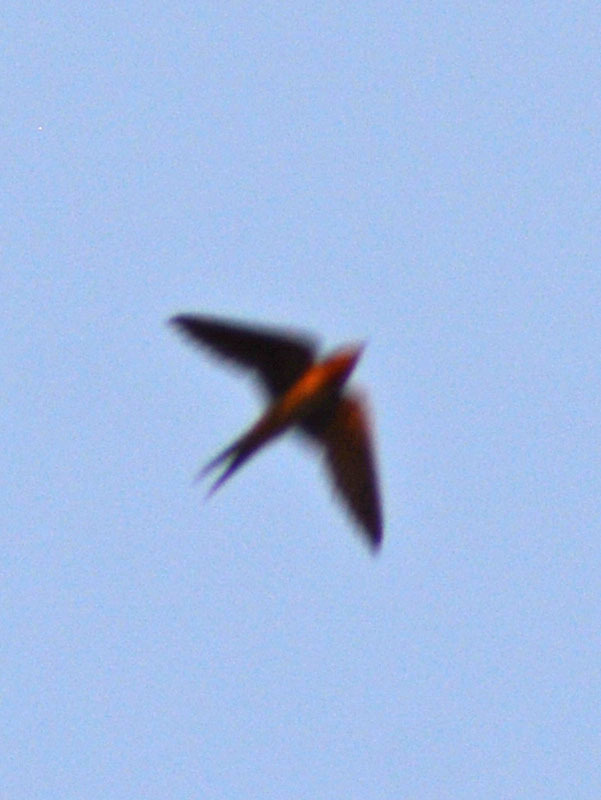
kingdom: Animalia
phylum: Chordata
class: Aves
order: Passeriformes
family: Hirundinidae
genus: Hirundo
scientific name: Hirundo rustica
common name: Barn swallow
